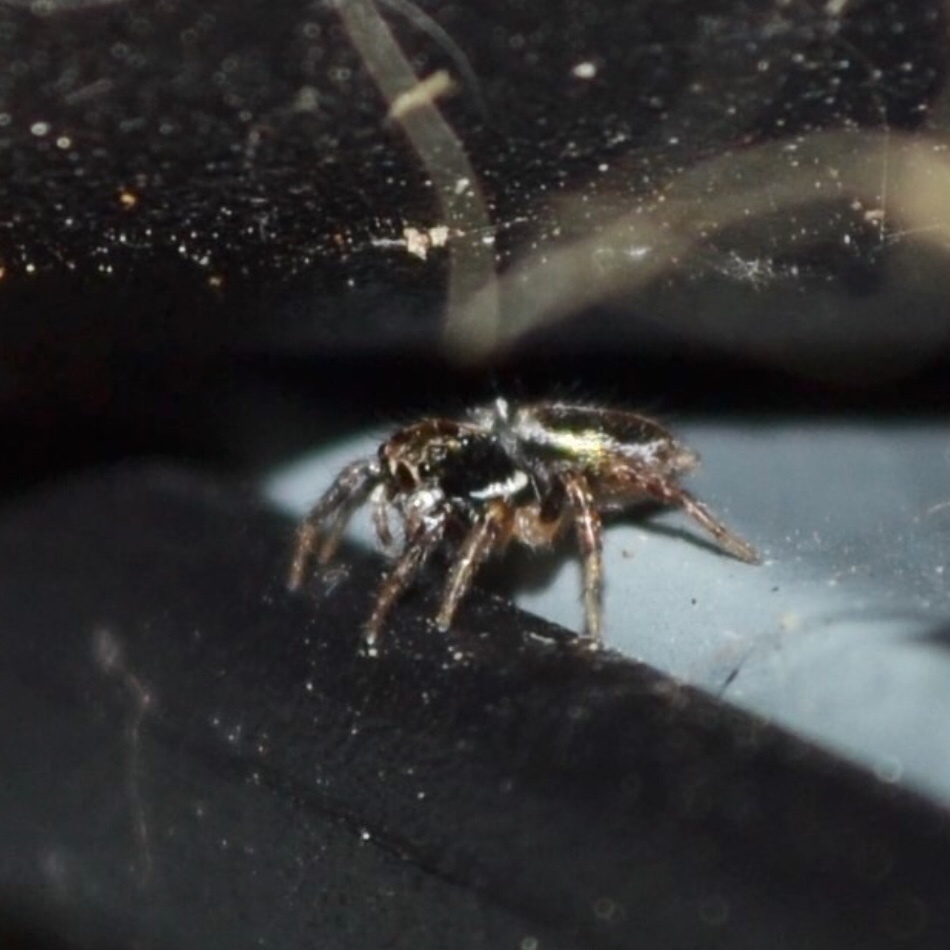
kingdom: Animalia
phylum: Arthropoda
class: Arachnida
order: Araneae
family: Salticidae
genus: Anasaitis
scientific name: Anasaitis canosa
